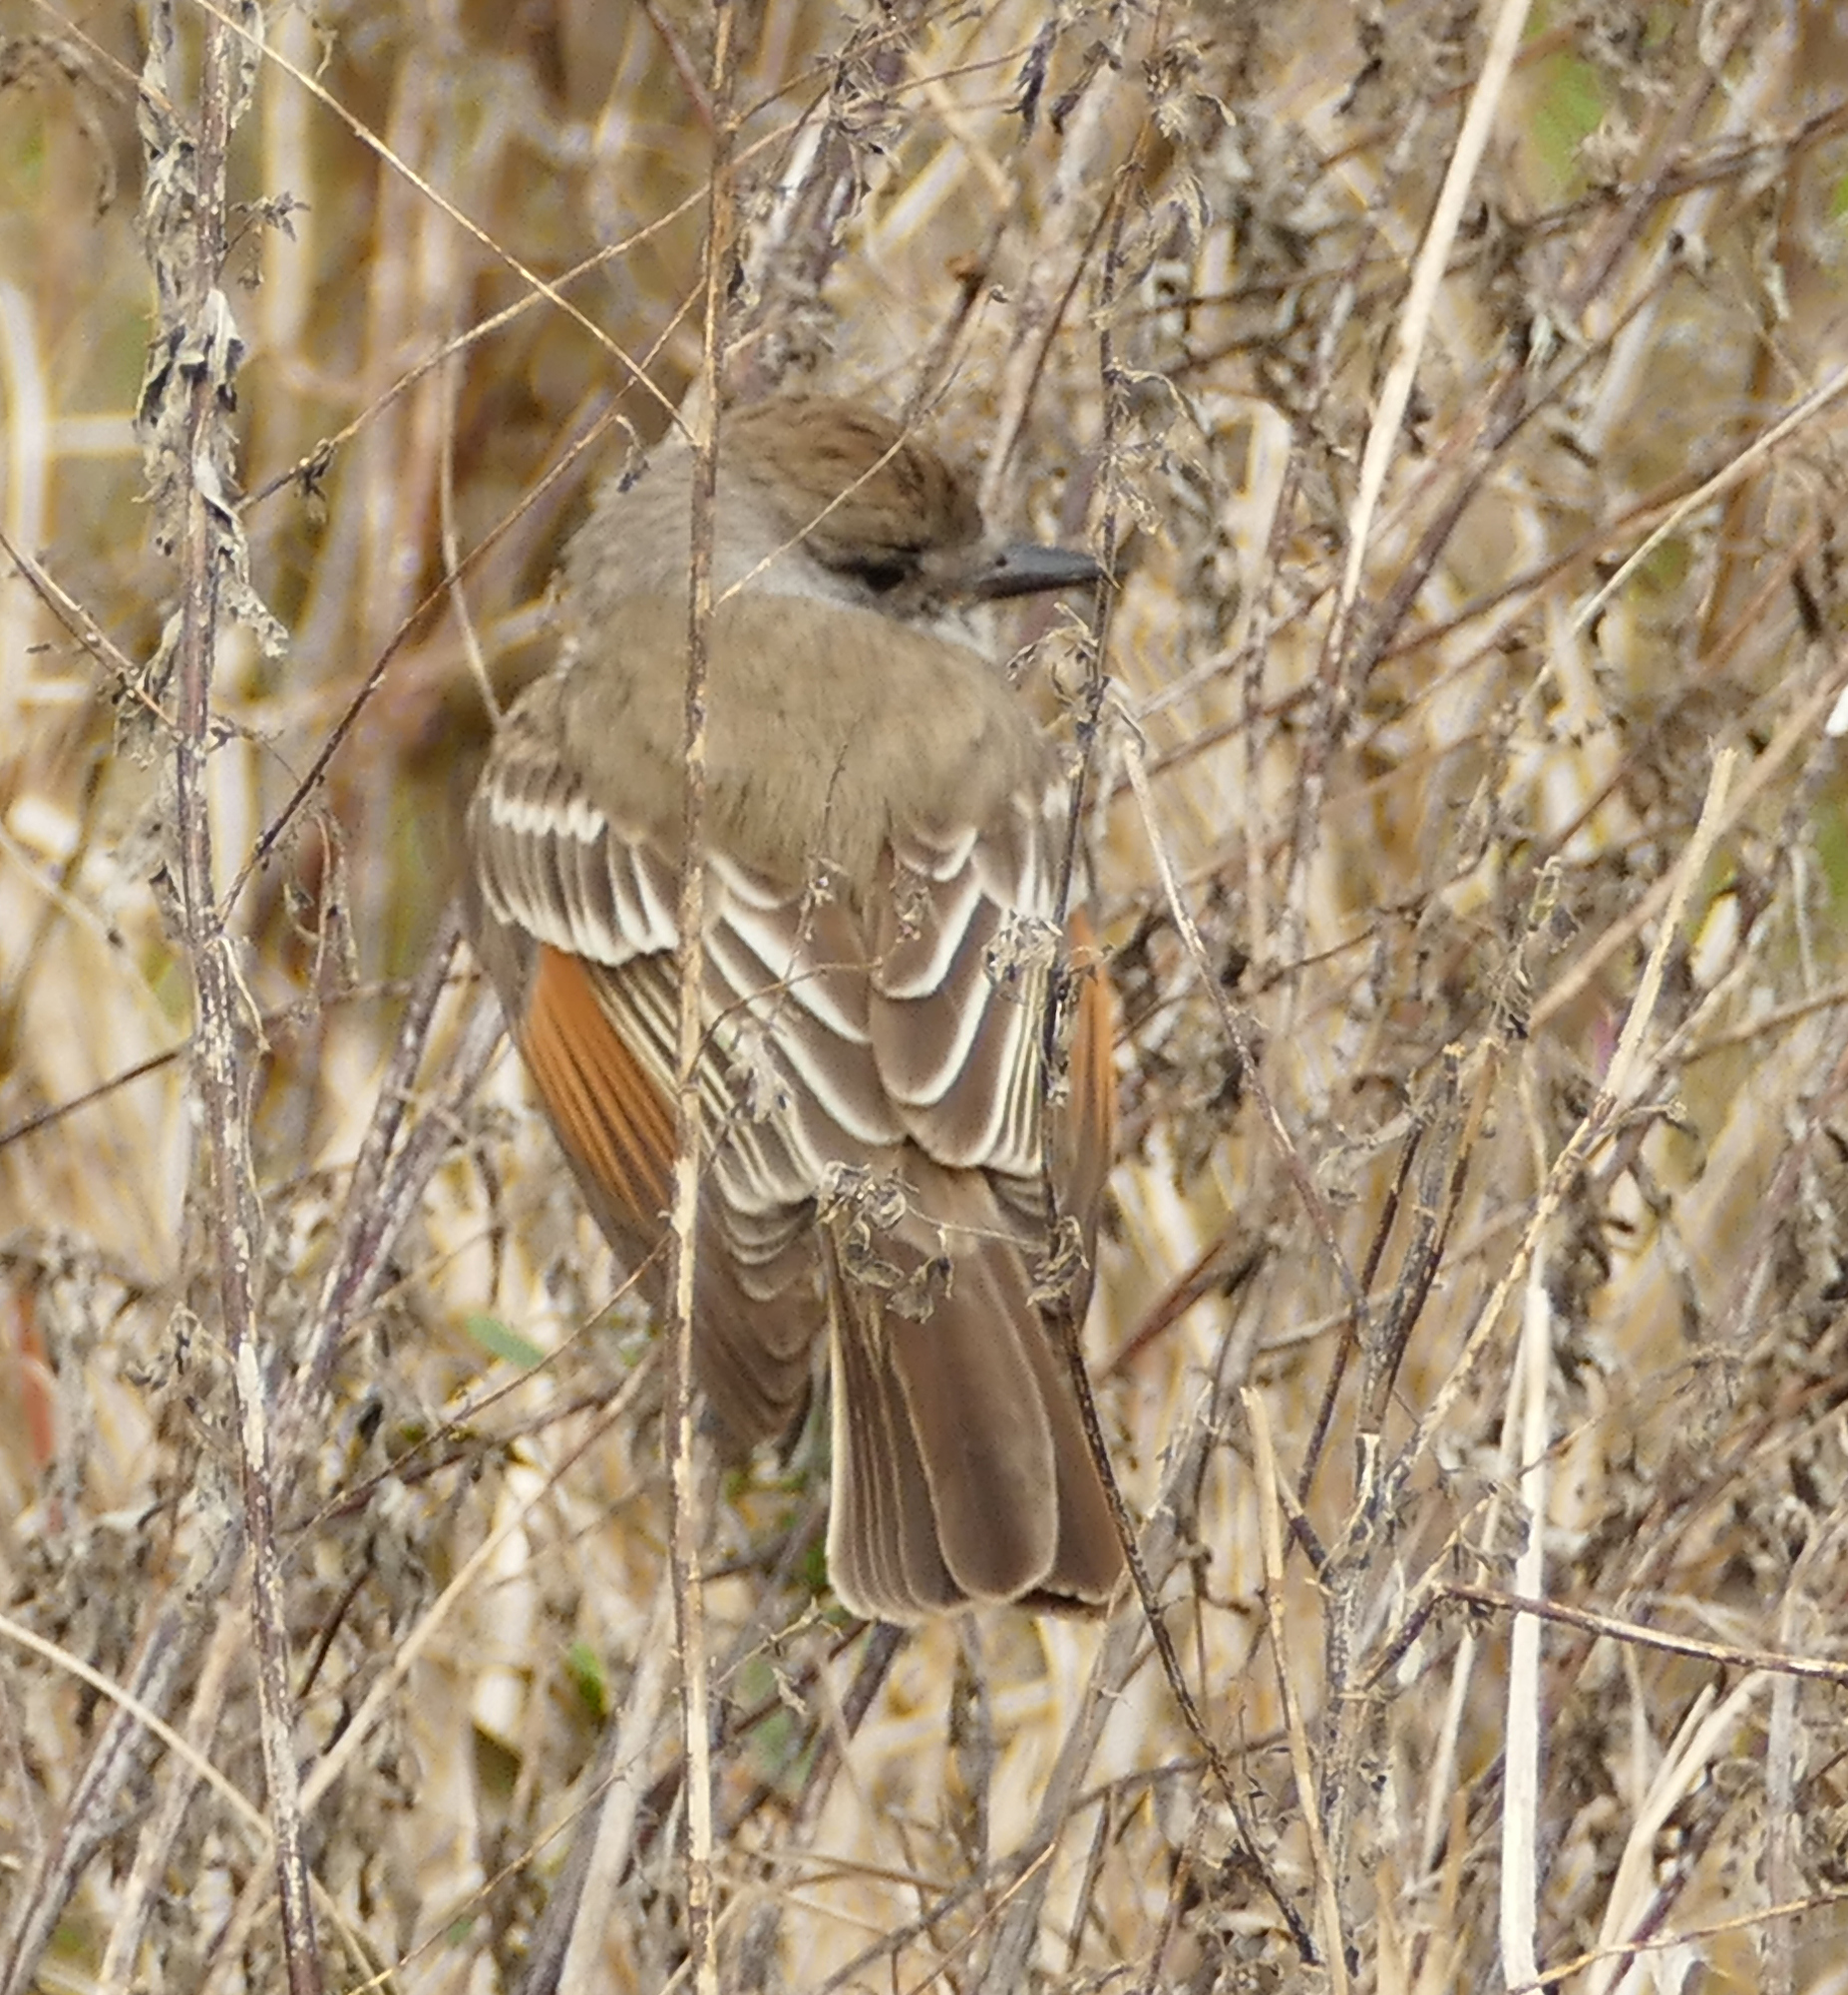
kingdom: Animalia
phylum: Chordata
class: Aves
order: Passeriformes
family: Tyrannidae
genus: Myiarchus
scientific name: Myiarchus cinerascens
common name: Ash-throated flycatcher
